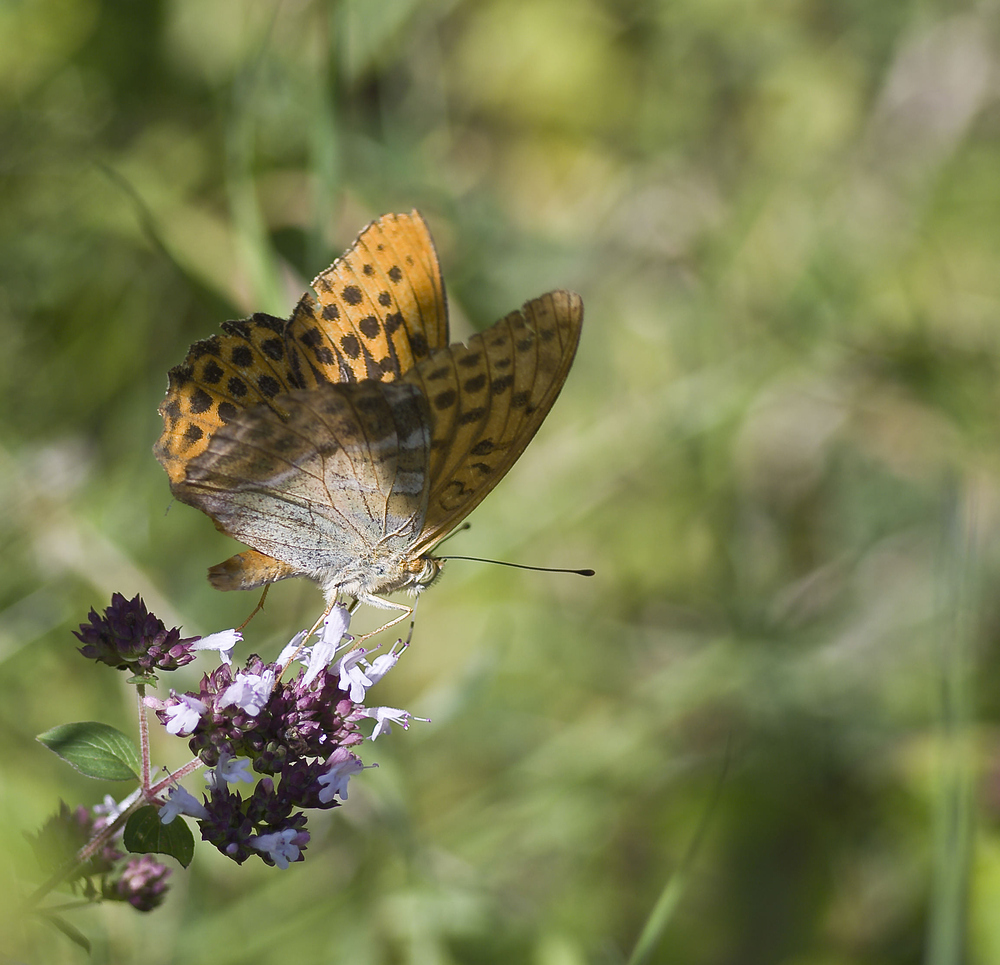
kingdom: Animalia
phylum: Arthropoda
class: Insecta
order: Lepidoptera
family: Nymphalidae
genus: Argynnis
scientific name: Argynnis paphia
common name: Silver-washed fritillary
